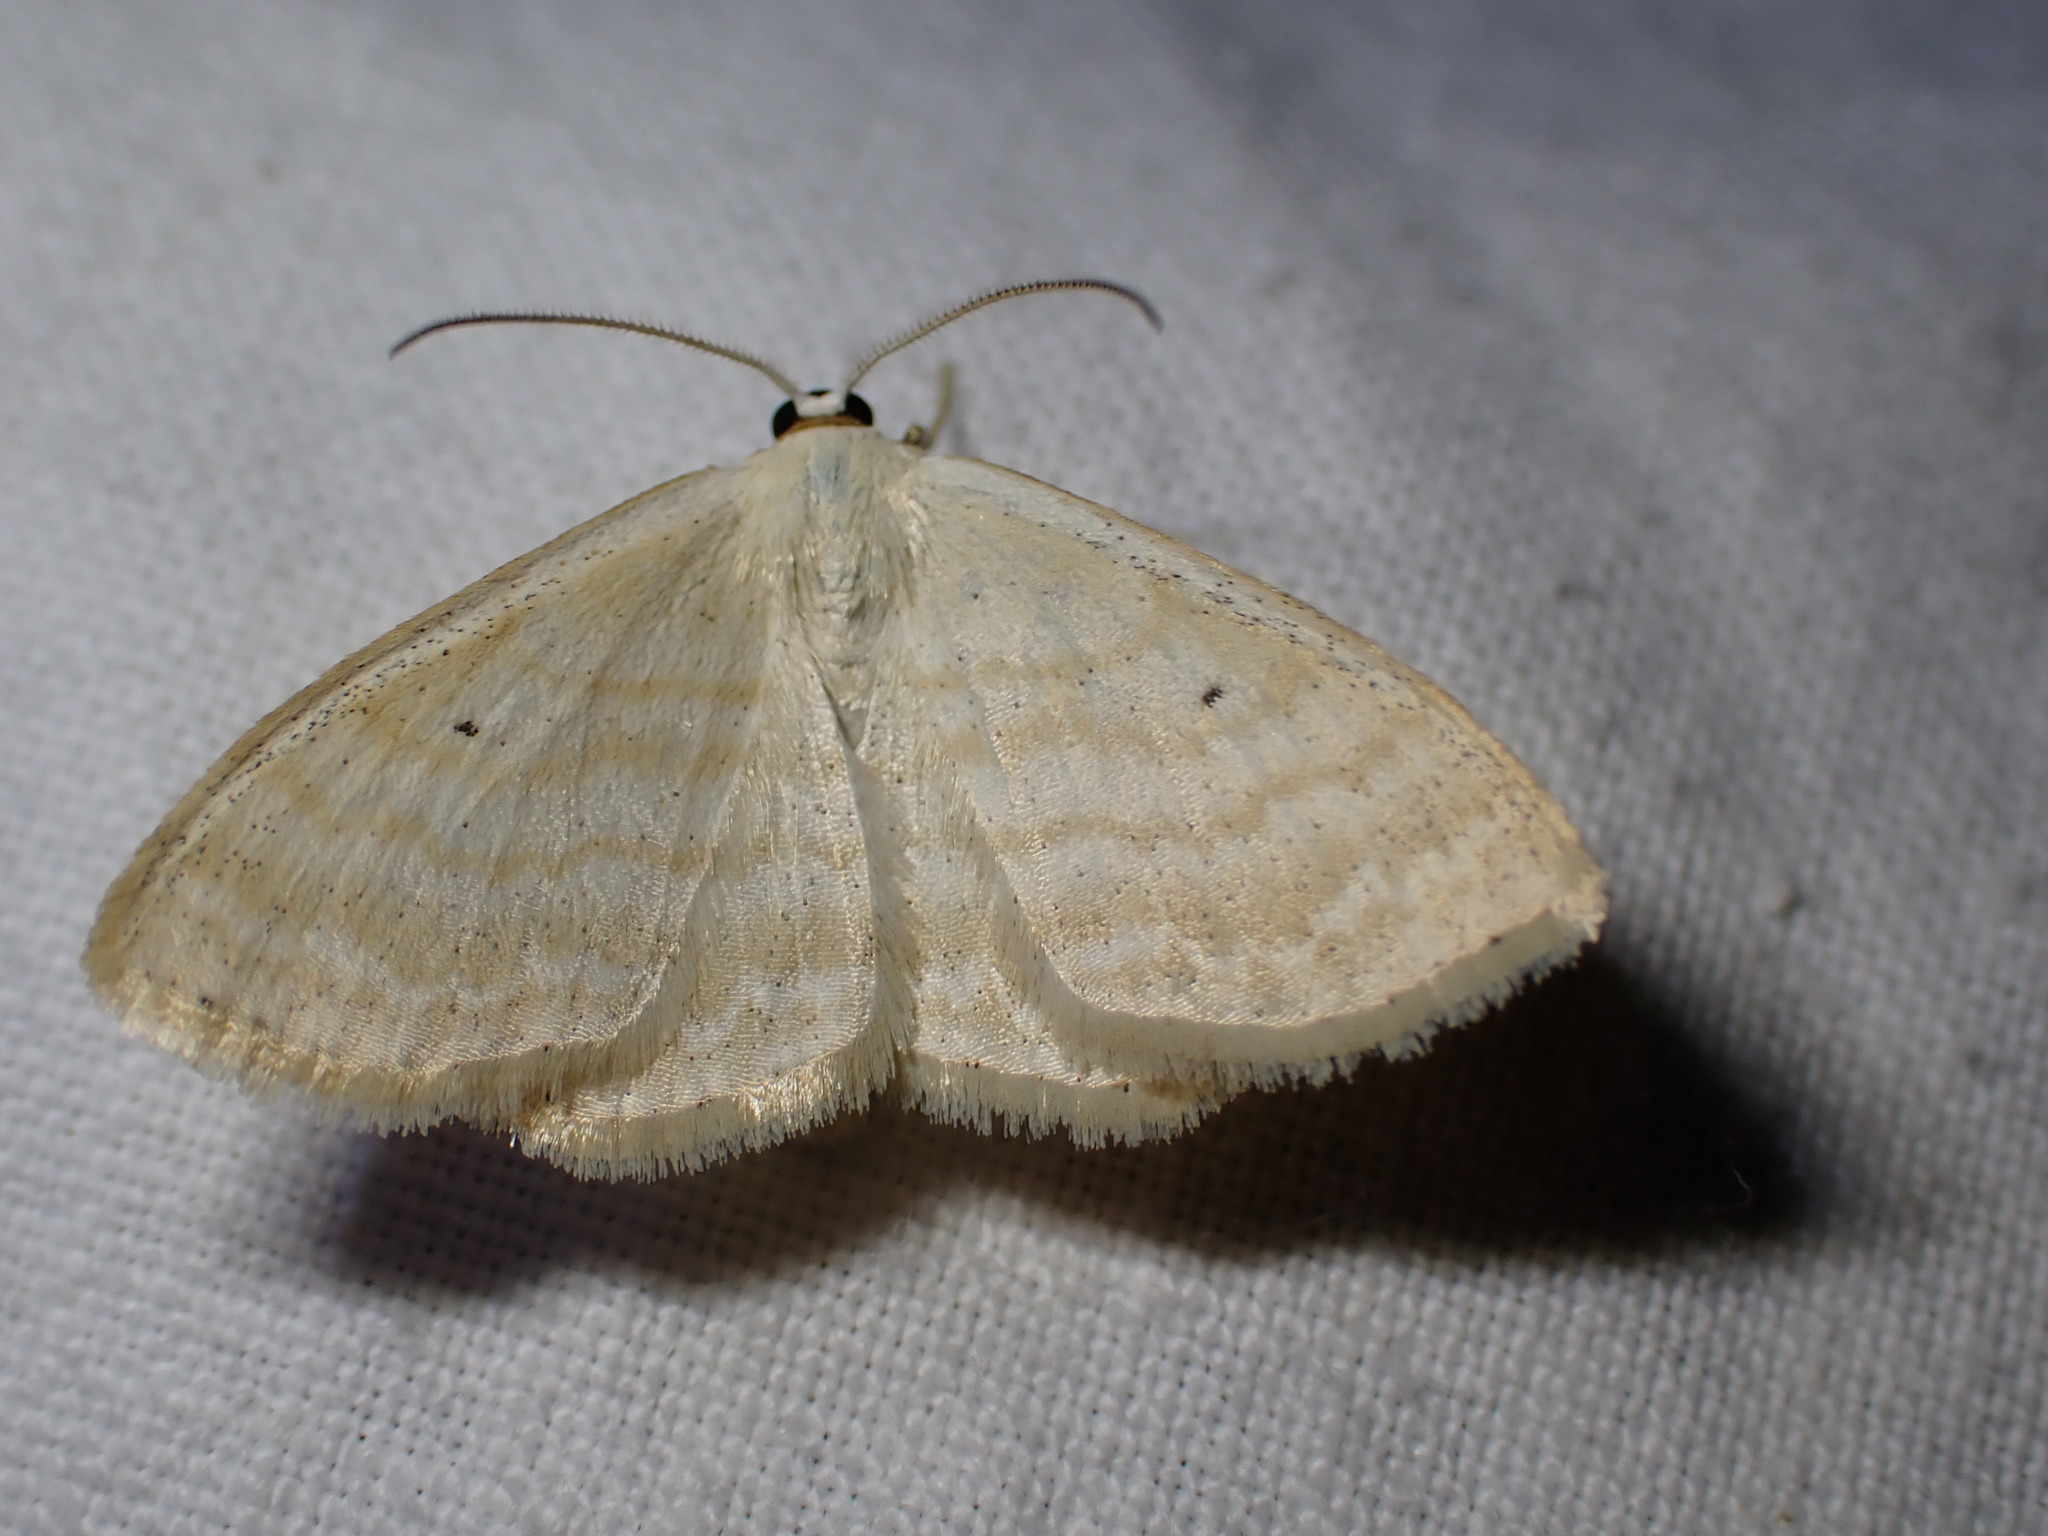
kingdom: Animalia
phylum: Arthropoda
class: Insecta
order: Lepidoptera
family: Geometridae
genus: Scopula
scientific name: Scopula immutata
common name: Lesser cream wave
